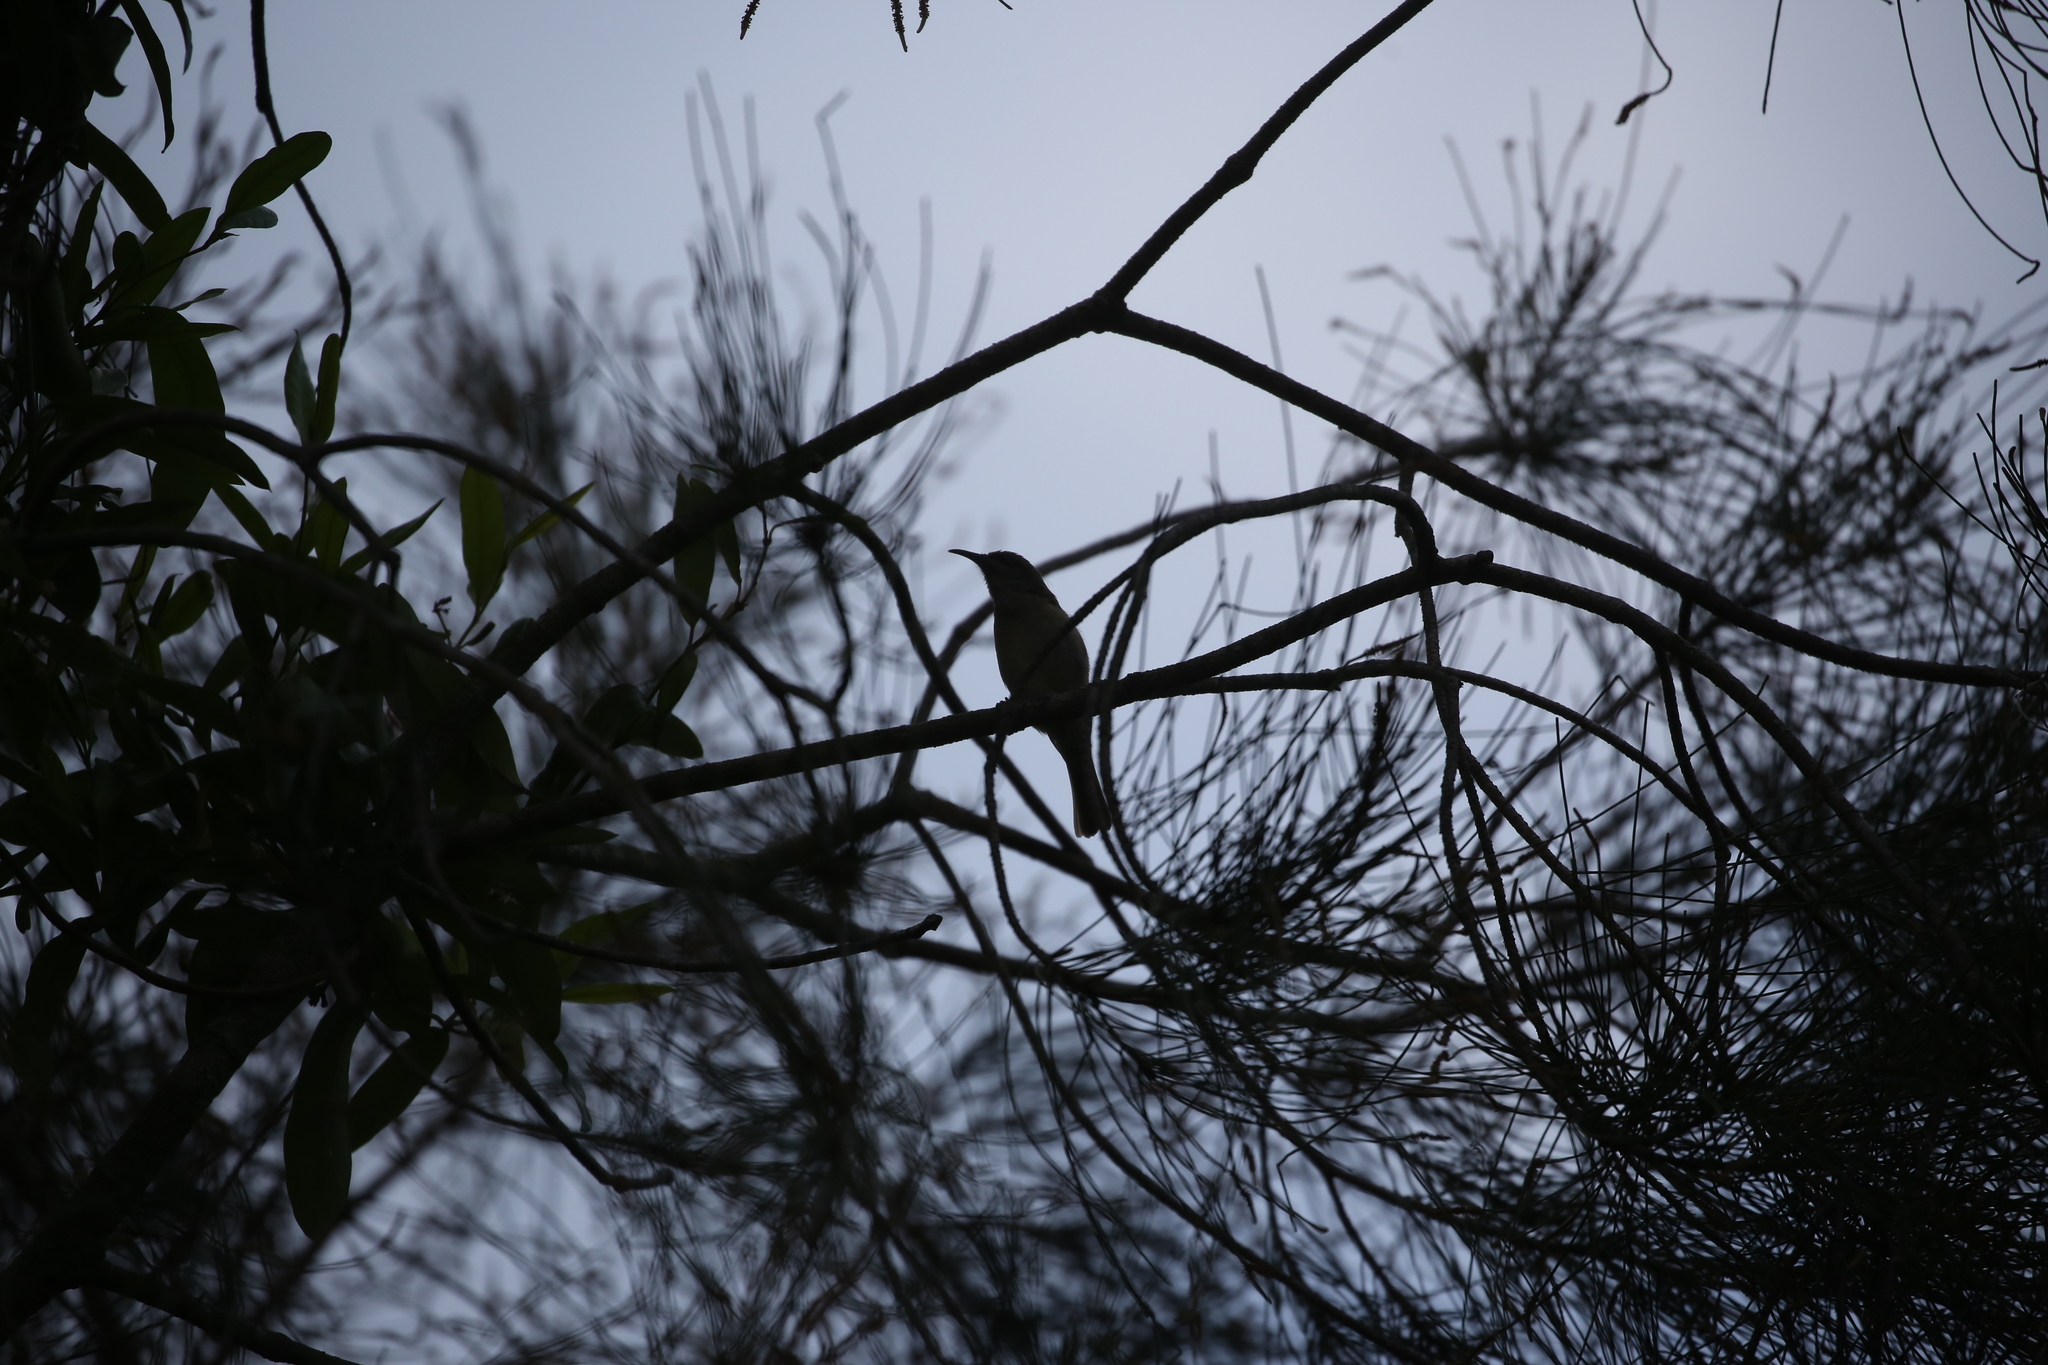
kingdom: Animalia
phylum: Chordata
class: Aves
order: Passeriformes
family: Meliphagidae
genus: Lichmera
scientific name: Lichmera indistincta
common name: Brown honeyeater
